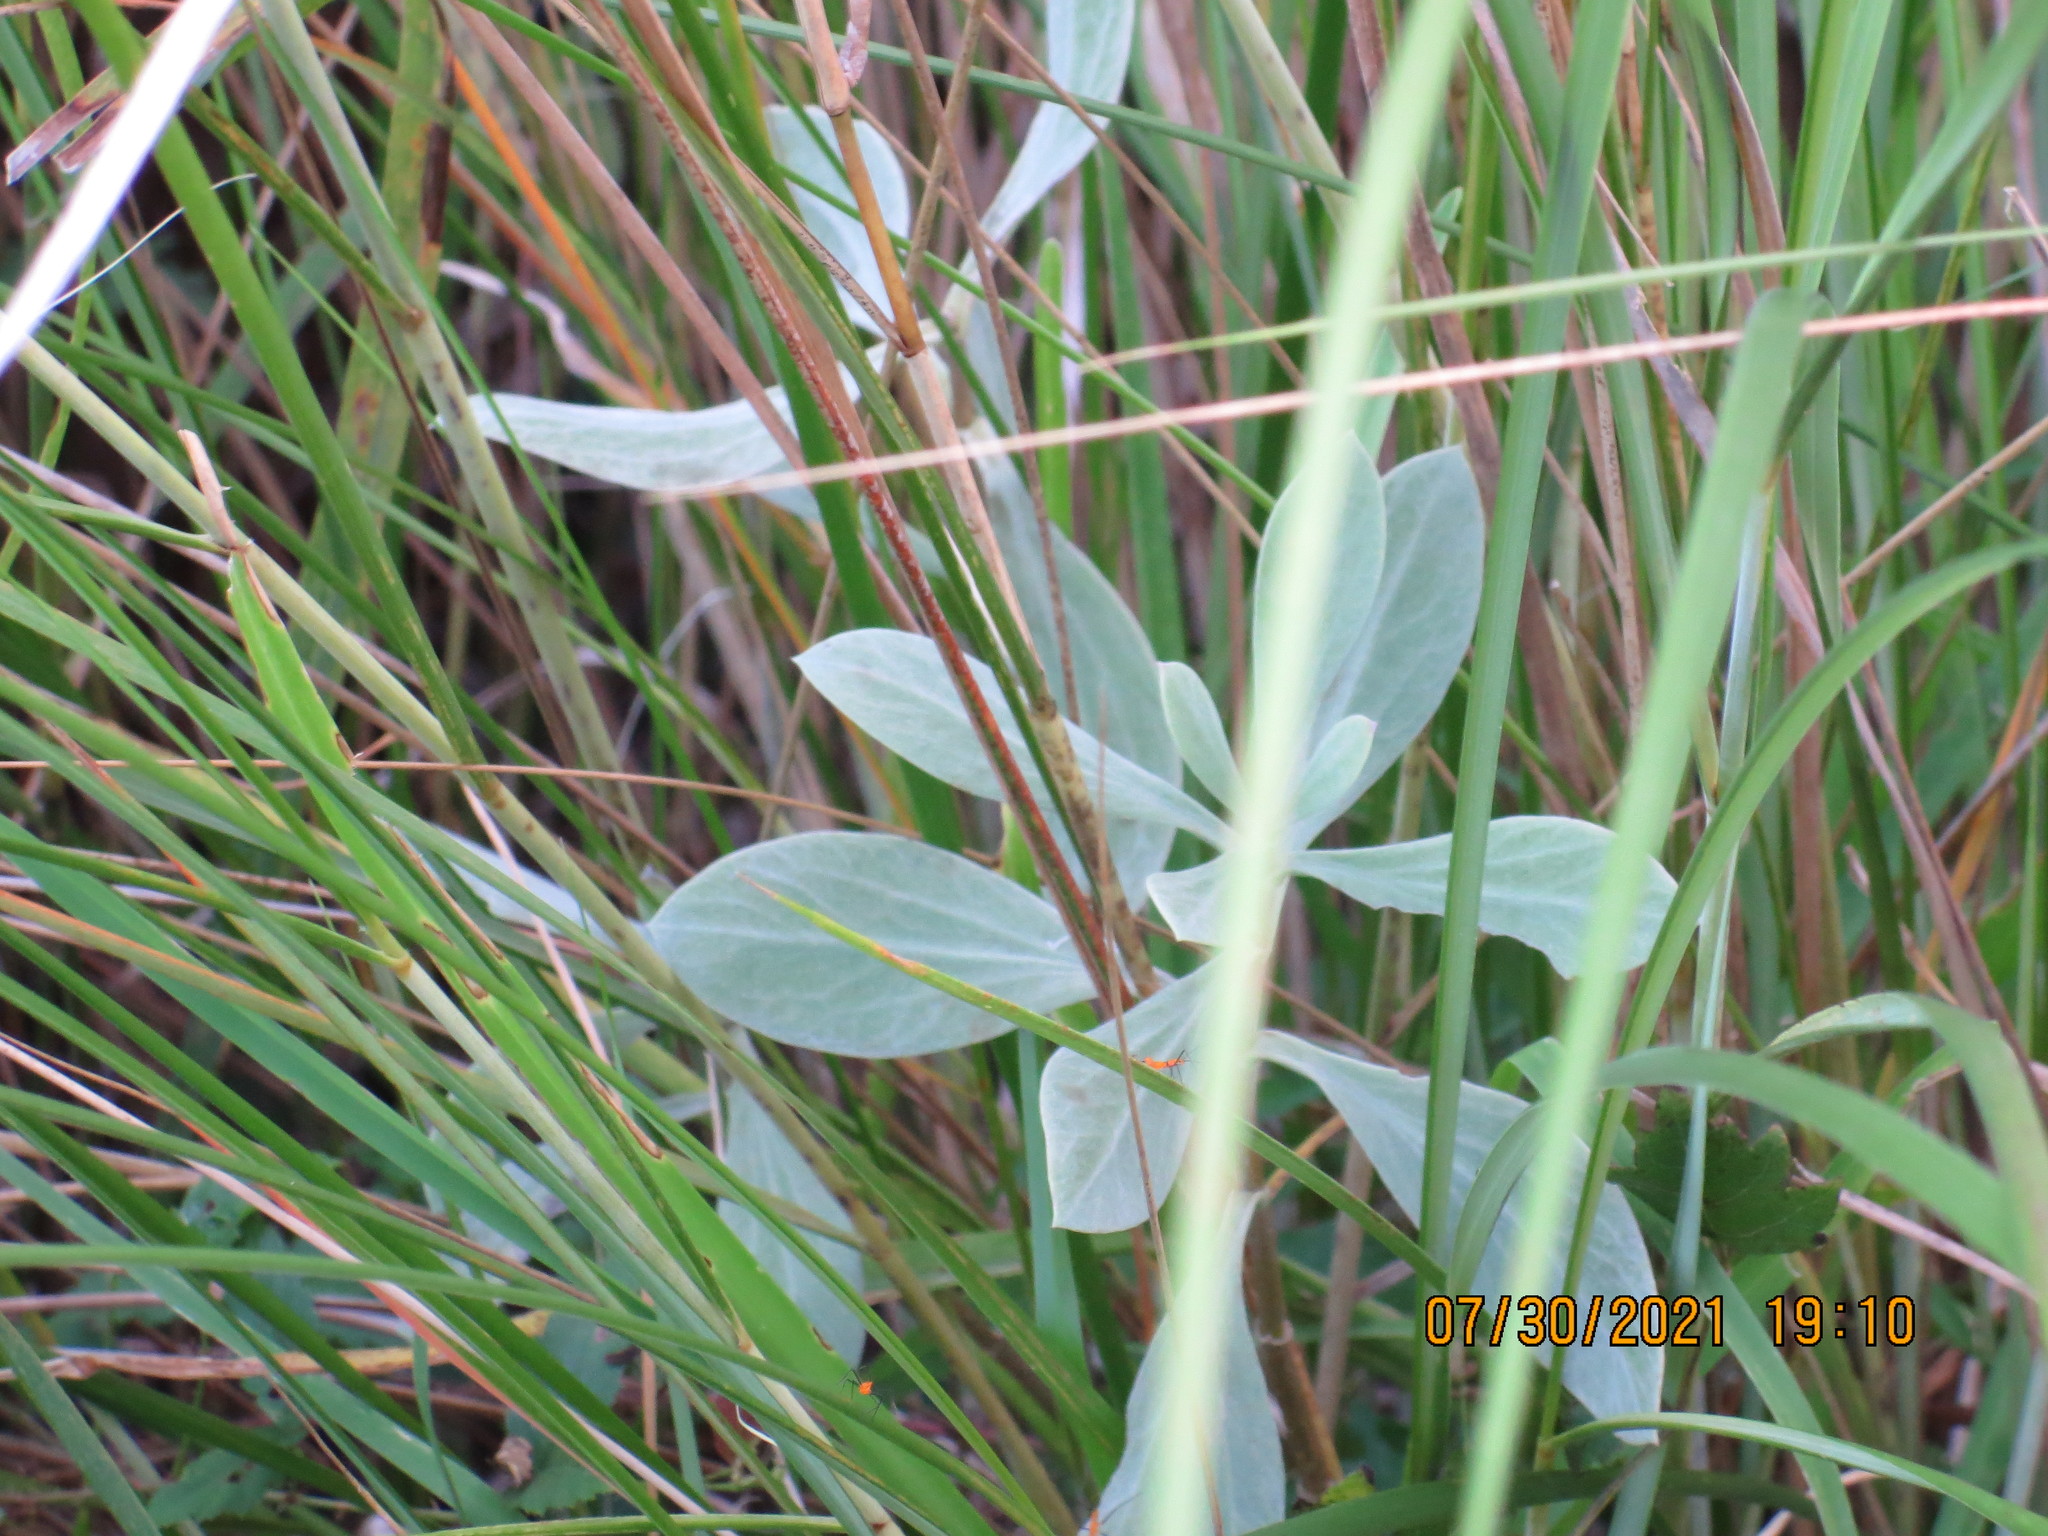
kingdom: Plantae
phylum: Tracheophyta
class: Magnoliopsida
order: Asterales
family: Asteraceae
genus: Borrichia
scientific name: Borrichia frutescens
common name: Sea oxeye
